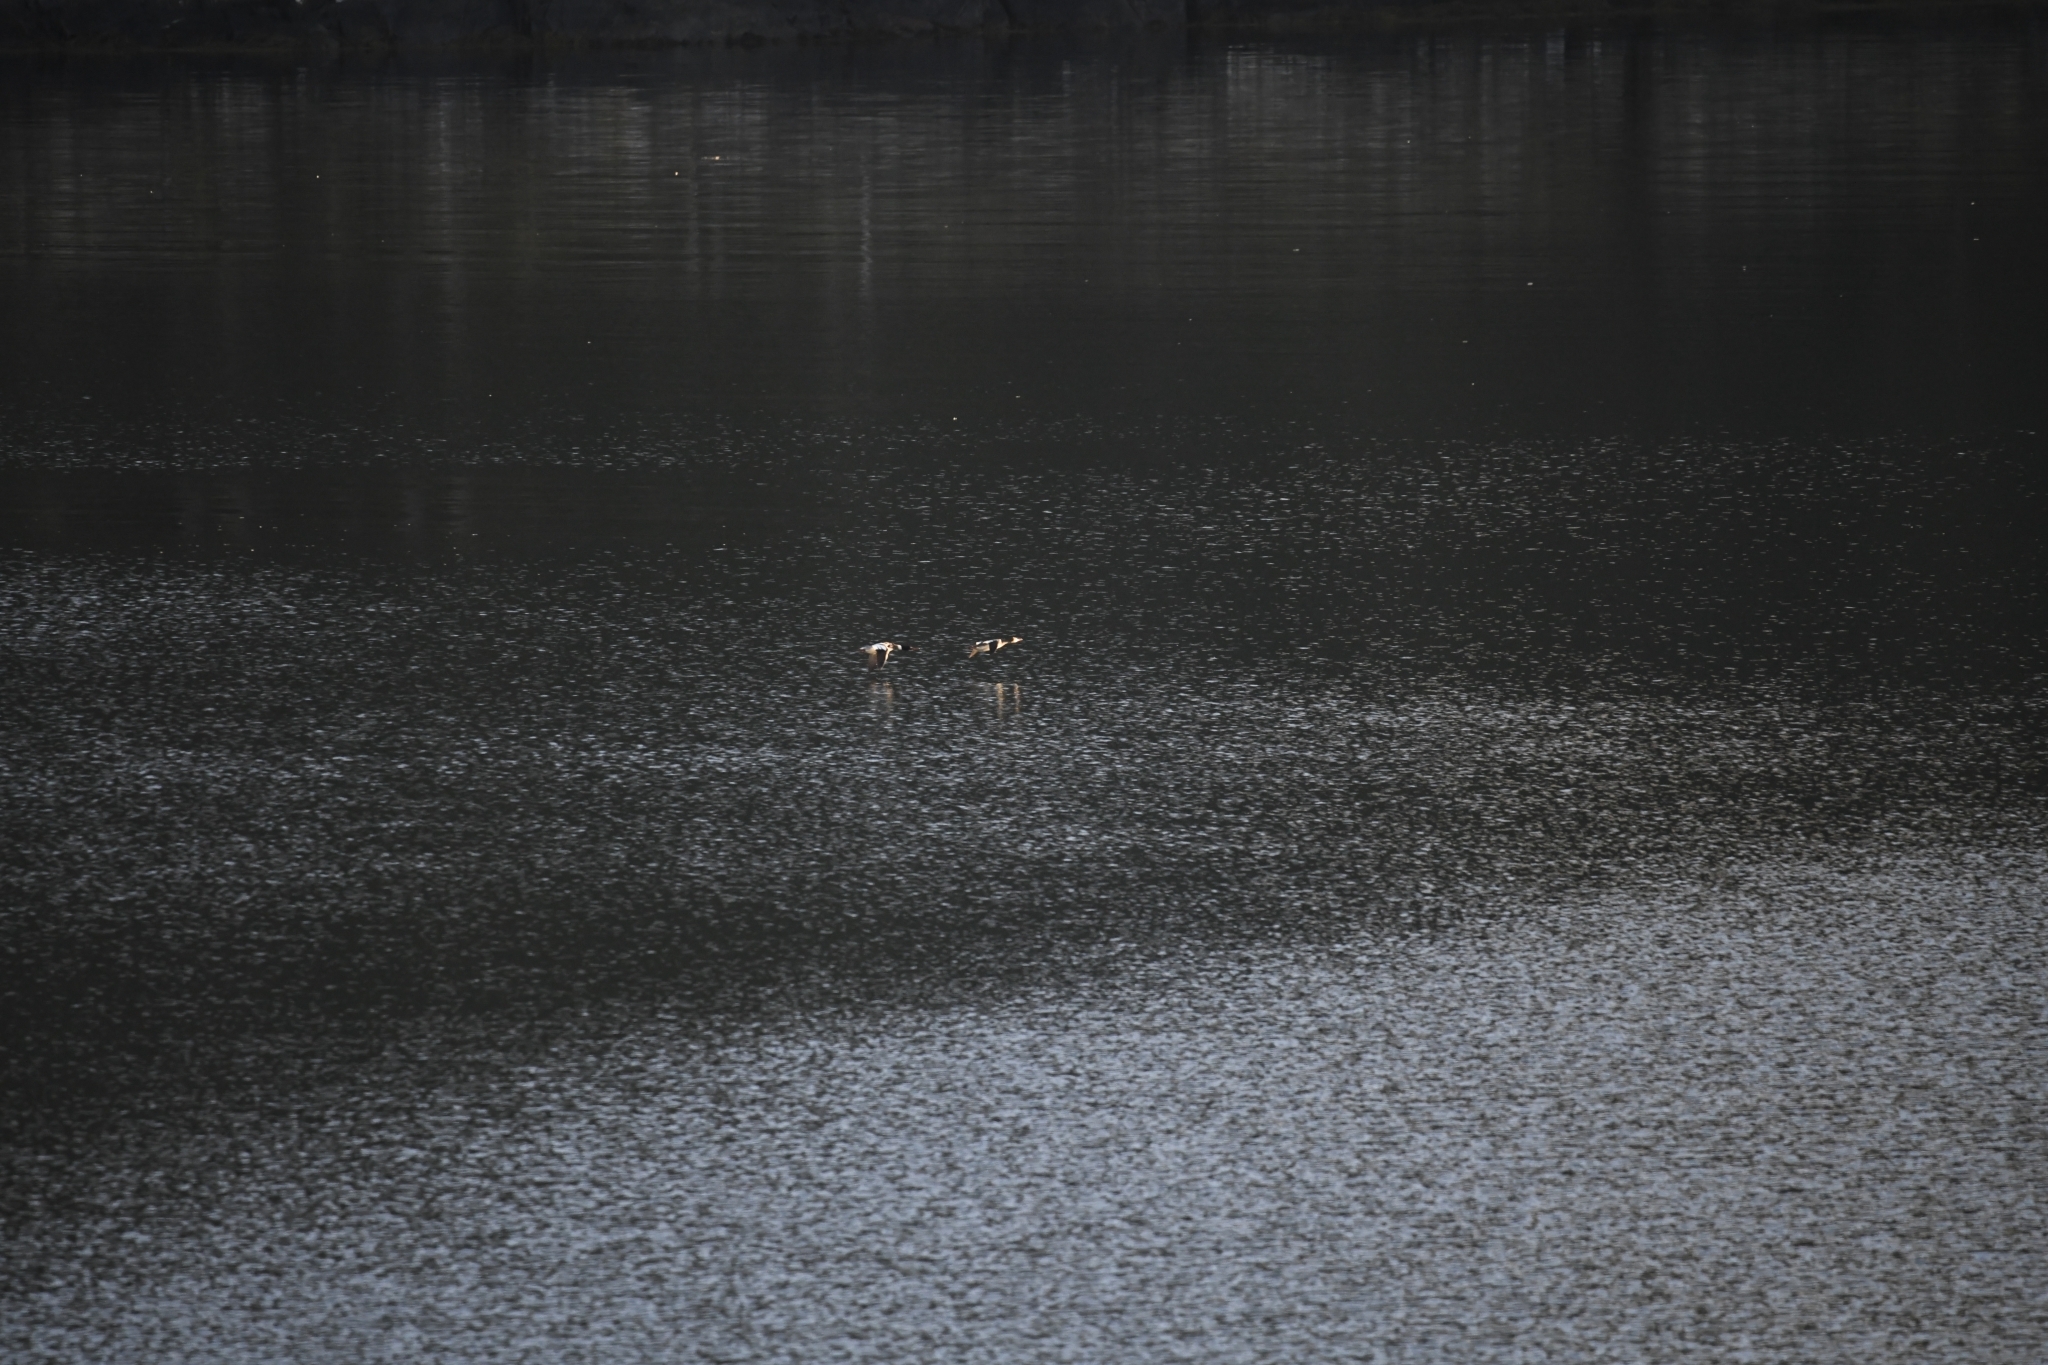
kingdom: Animalia
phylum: Chordata
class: Aves
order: Anseriformes
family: Anatidae
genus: Mergus
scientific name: Mergus merganser
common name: Common merganser
